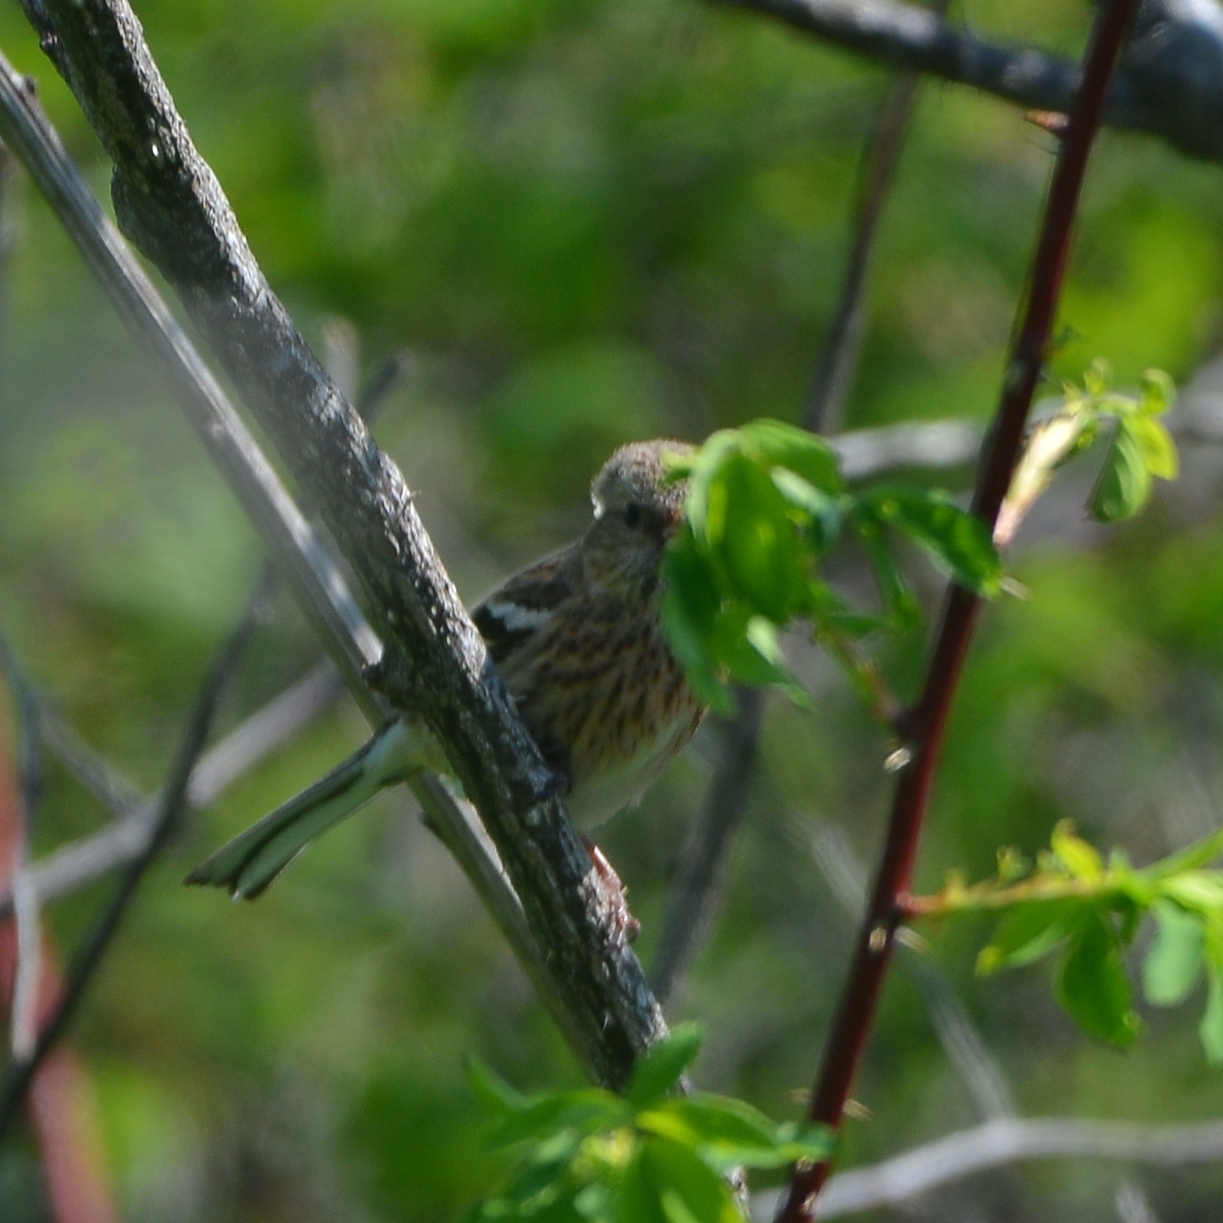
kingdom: Animalia
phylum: Chordata
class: Aves
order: Passeriformes
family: Fringillidae
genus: Carpodacus
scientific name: Carpodacus sibiricus
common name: Long-tailed rosefinch
